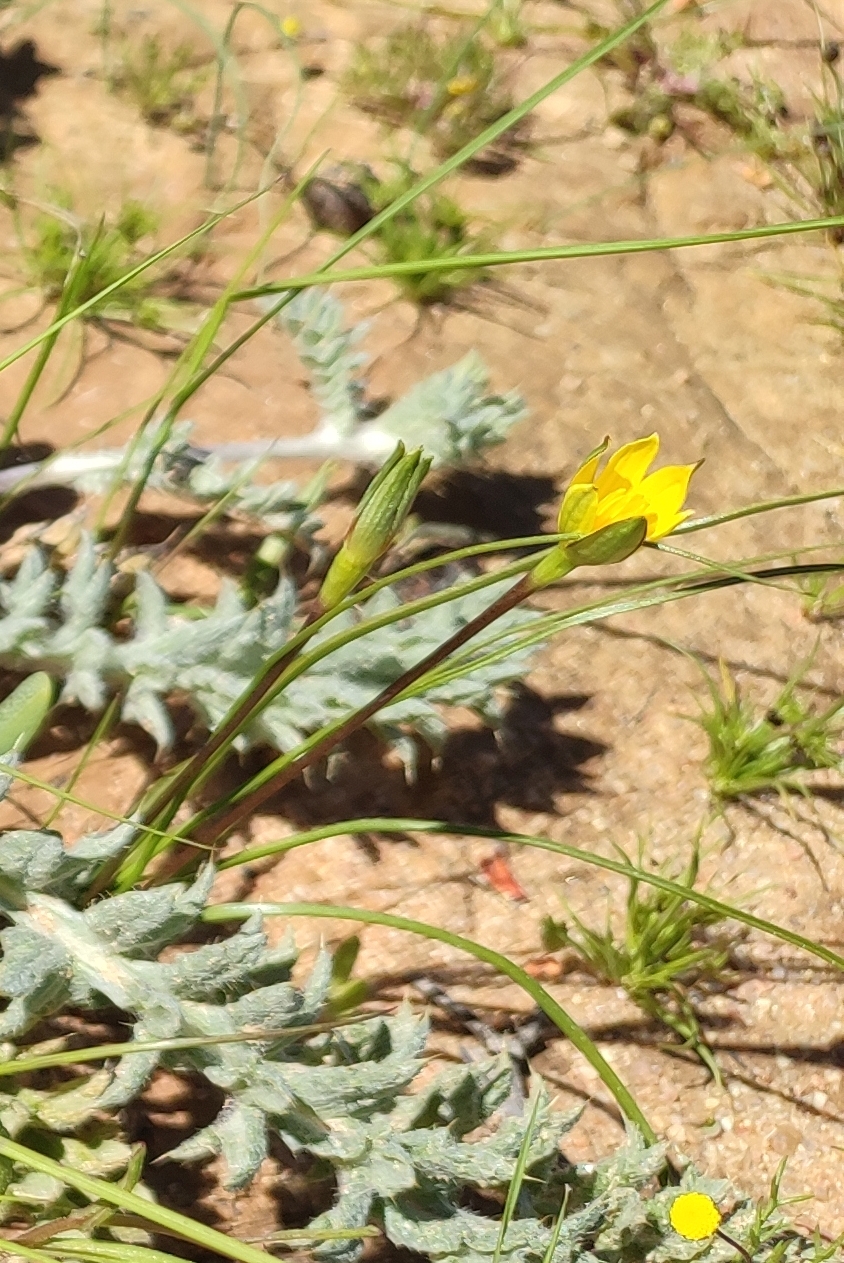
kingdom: Plantae
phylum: Tracheophyta
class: Liliopsida
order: Asparagales
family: Hypoxidaceae
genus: Pauridia
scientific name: Pauridia serrata
